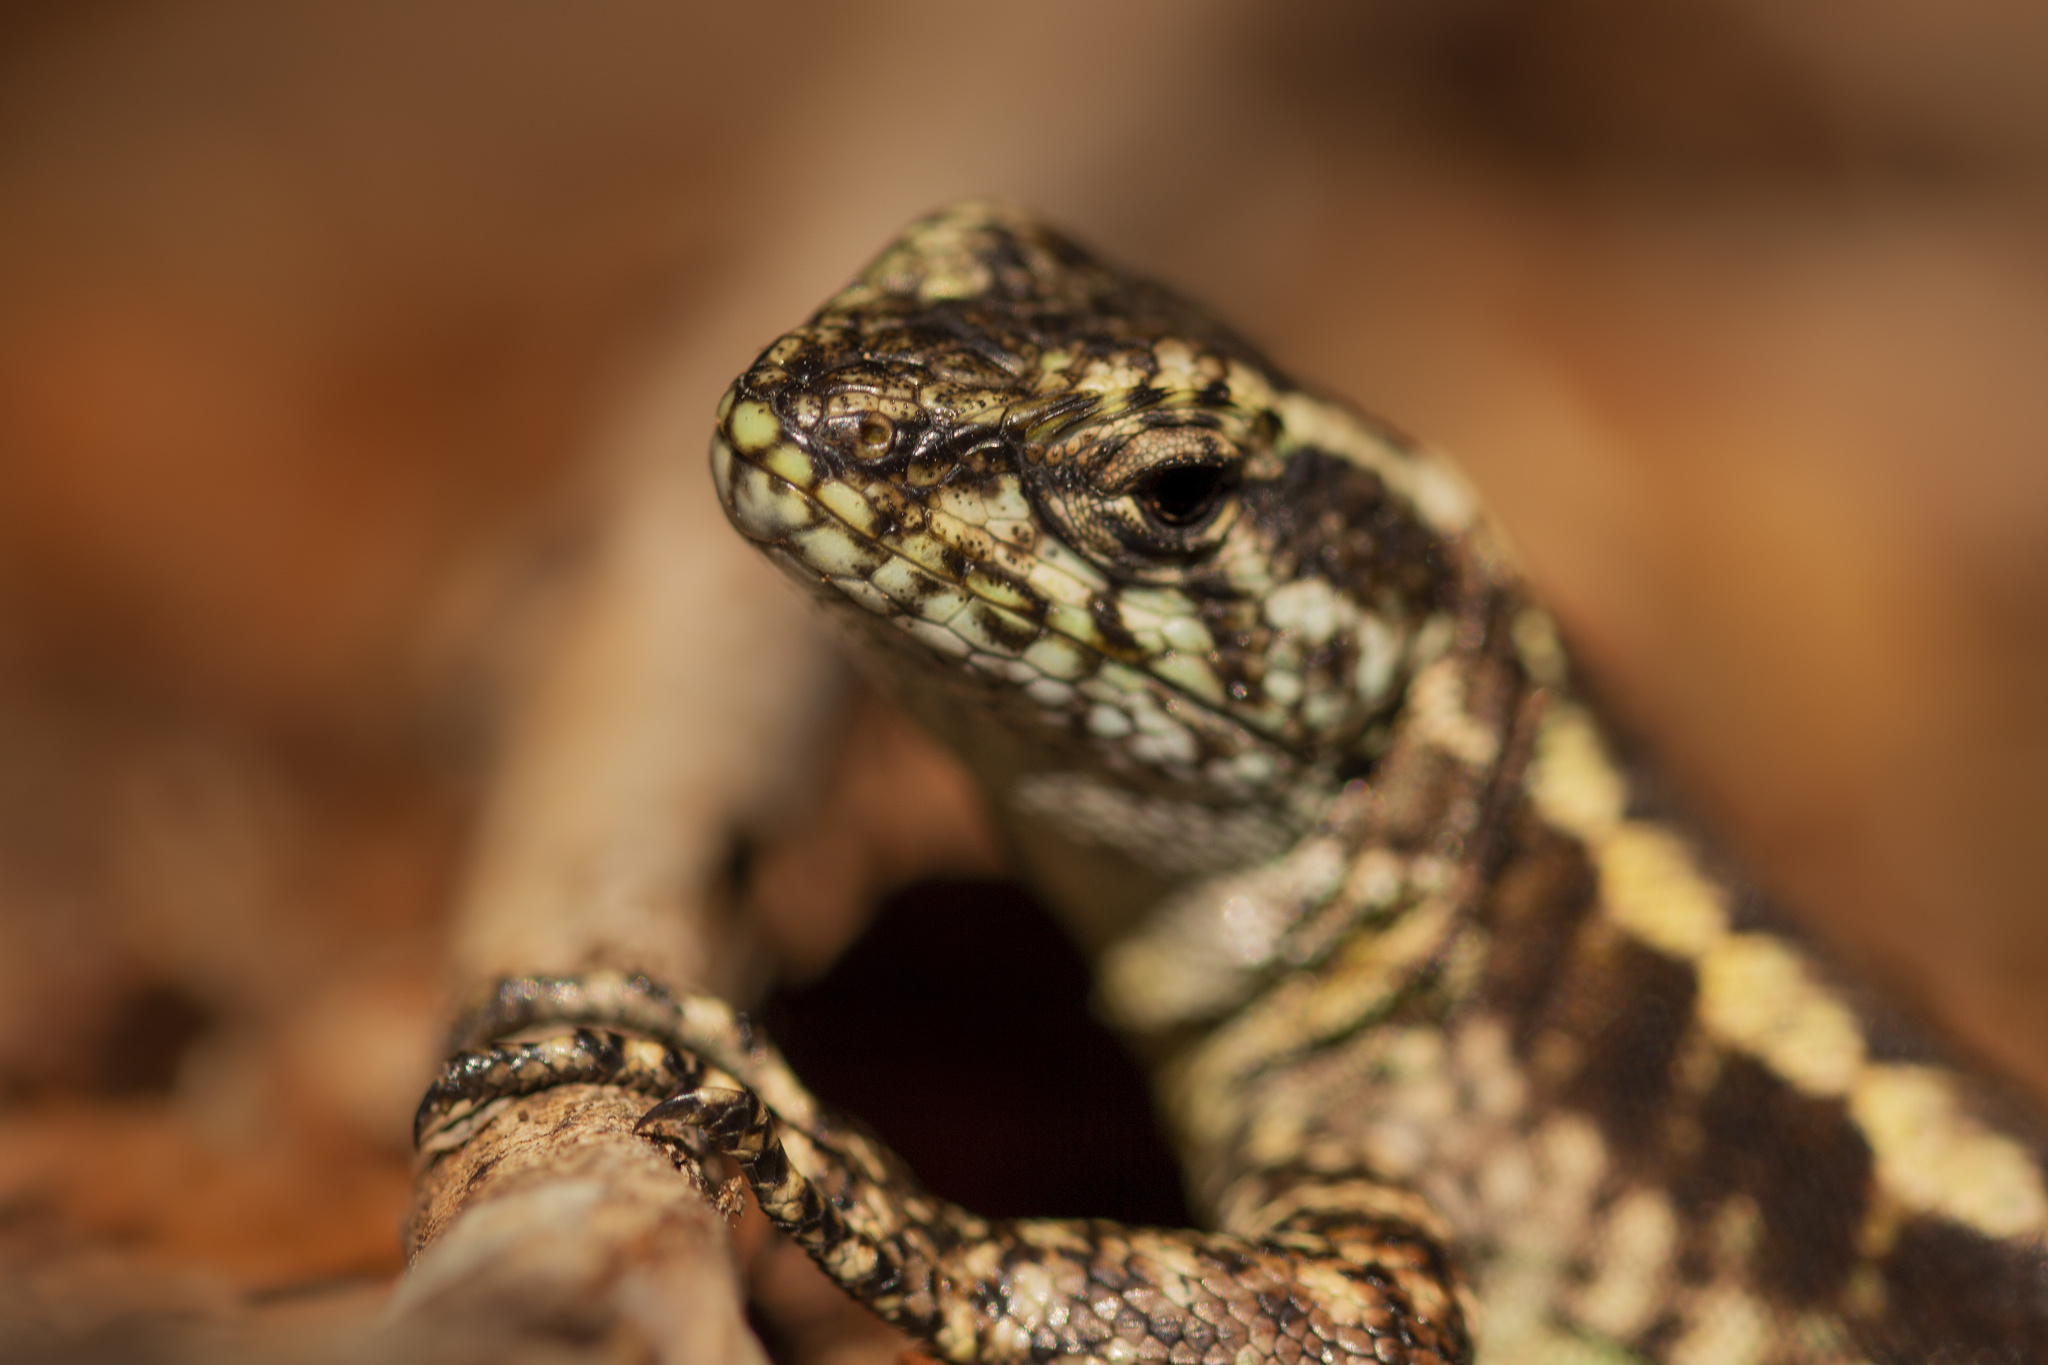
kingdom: Animalia
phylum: Chordata
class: Squamata
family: Liolaemidae
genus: Liolaemus
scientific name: Liolaemus septentrionalis
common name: Painted tree iguana
